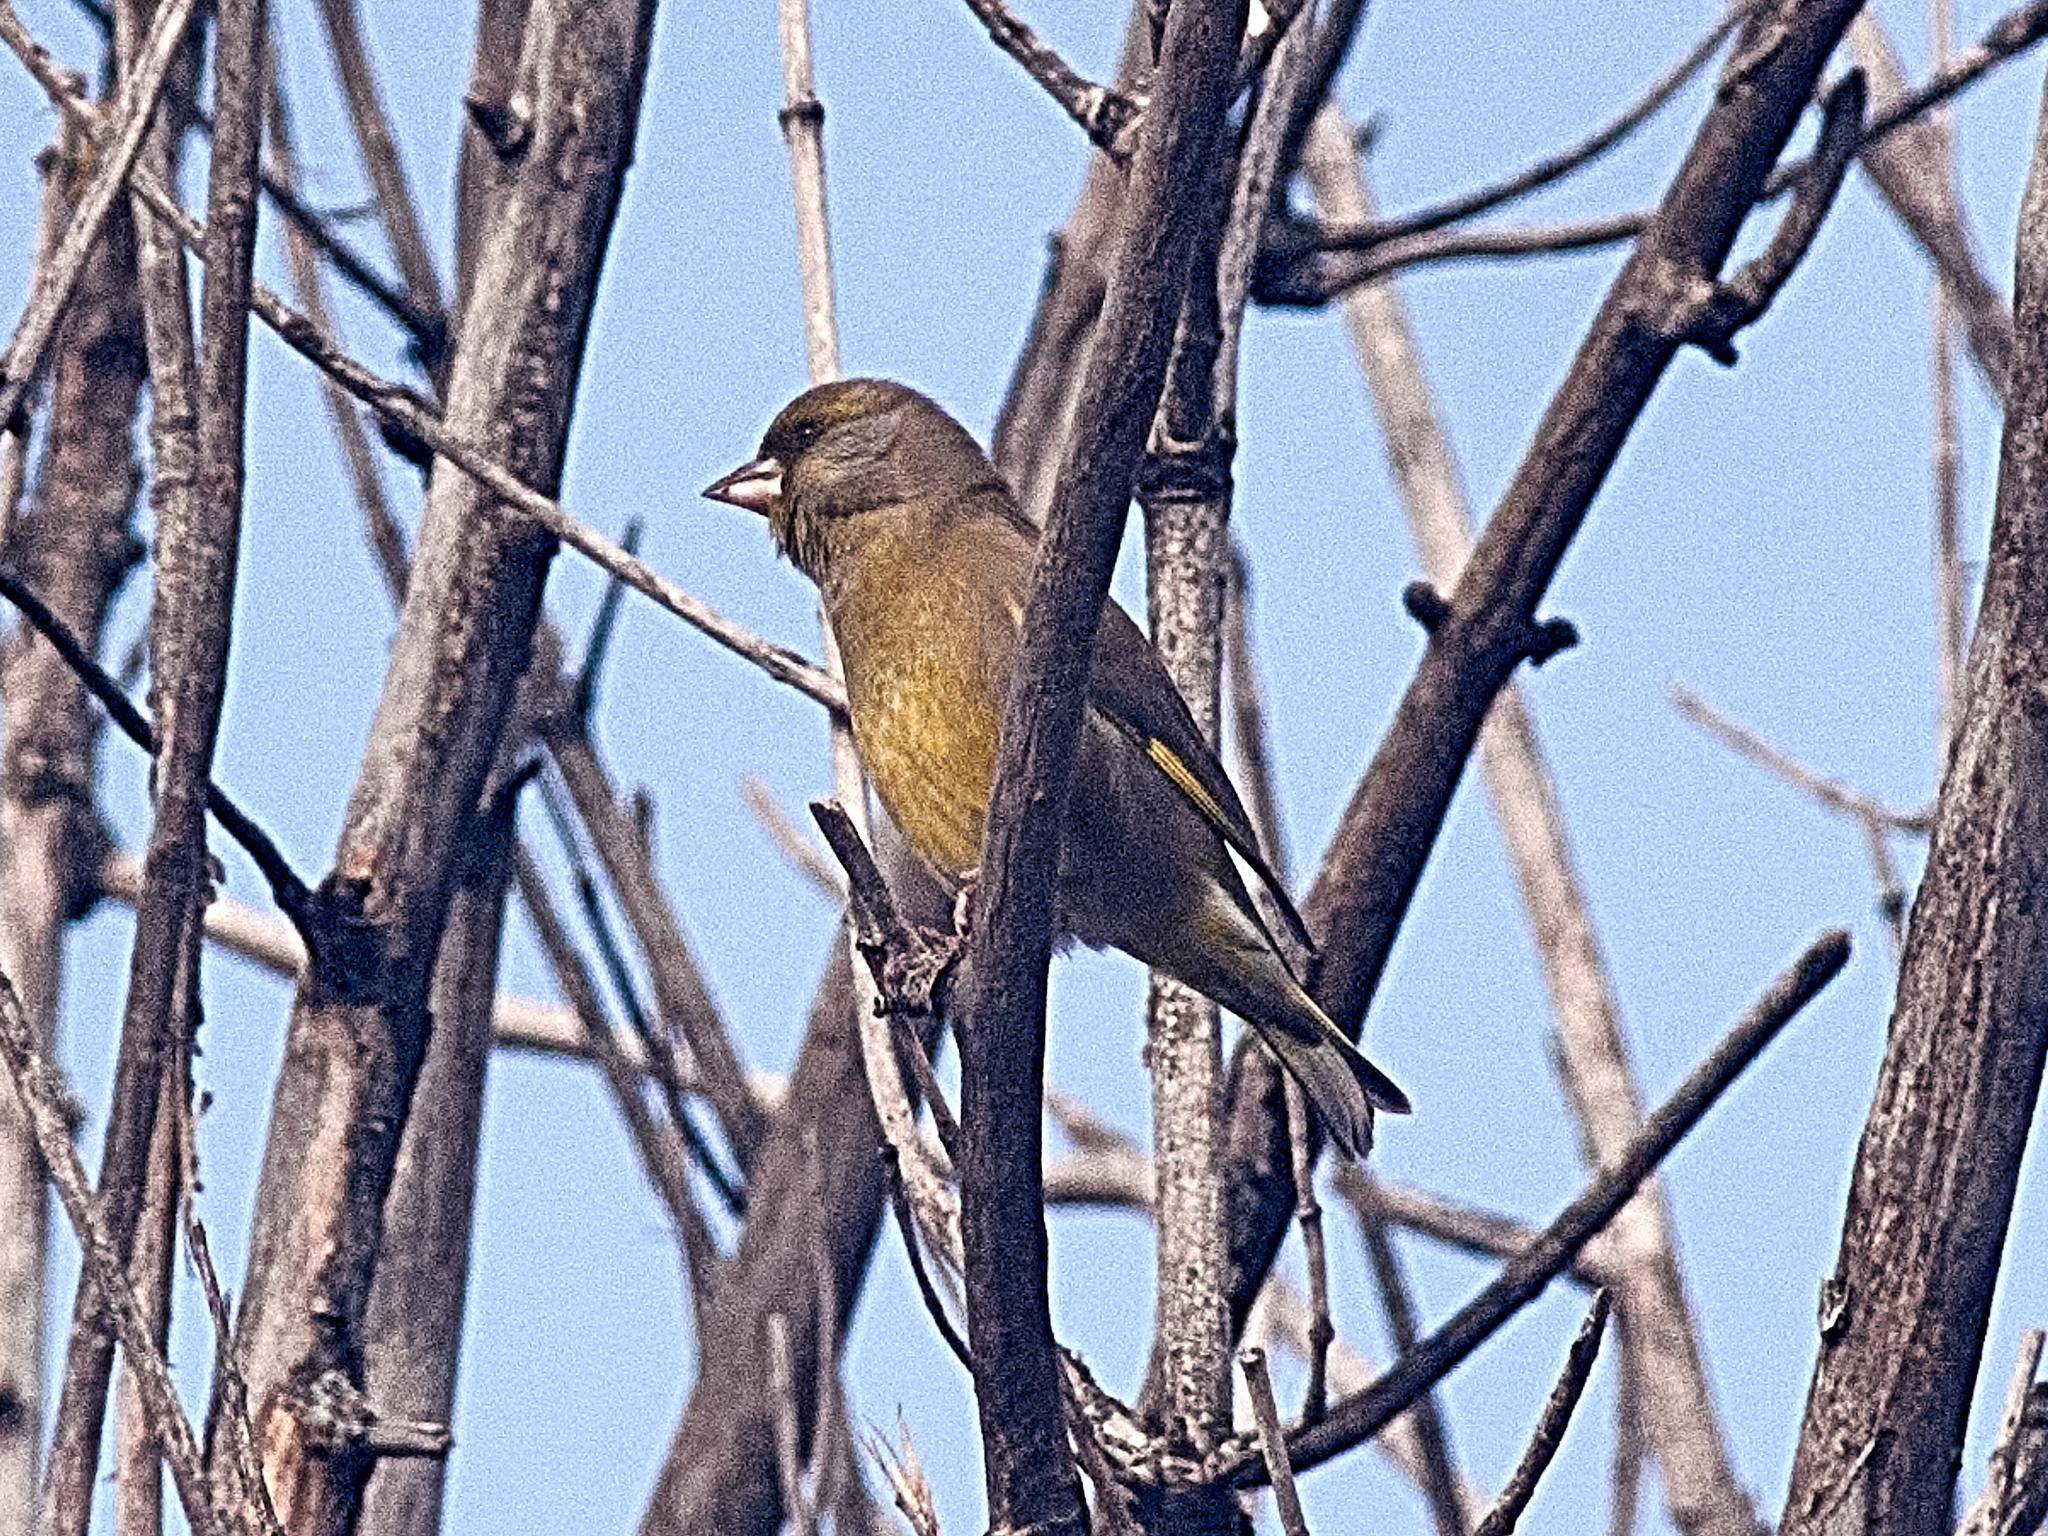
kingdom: Plantae
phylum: Tracheophyta
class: Liliopsida
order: Poales
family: Poaceae
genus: Chloris
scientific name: Chloris chloris
